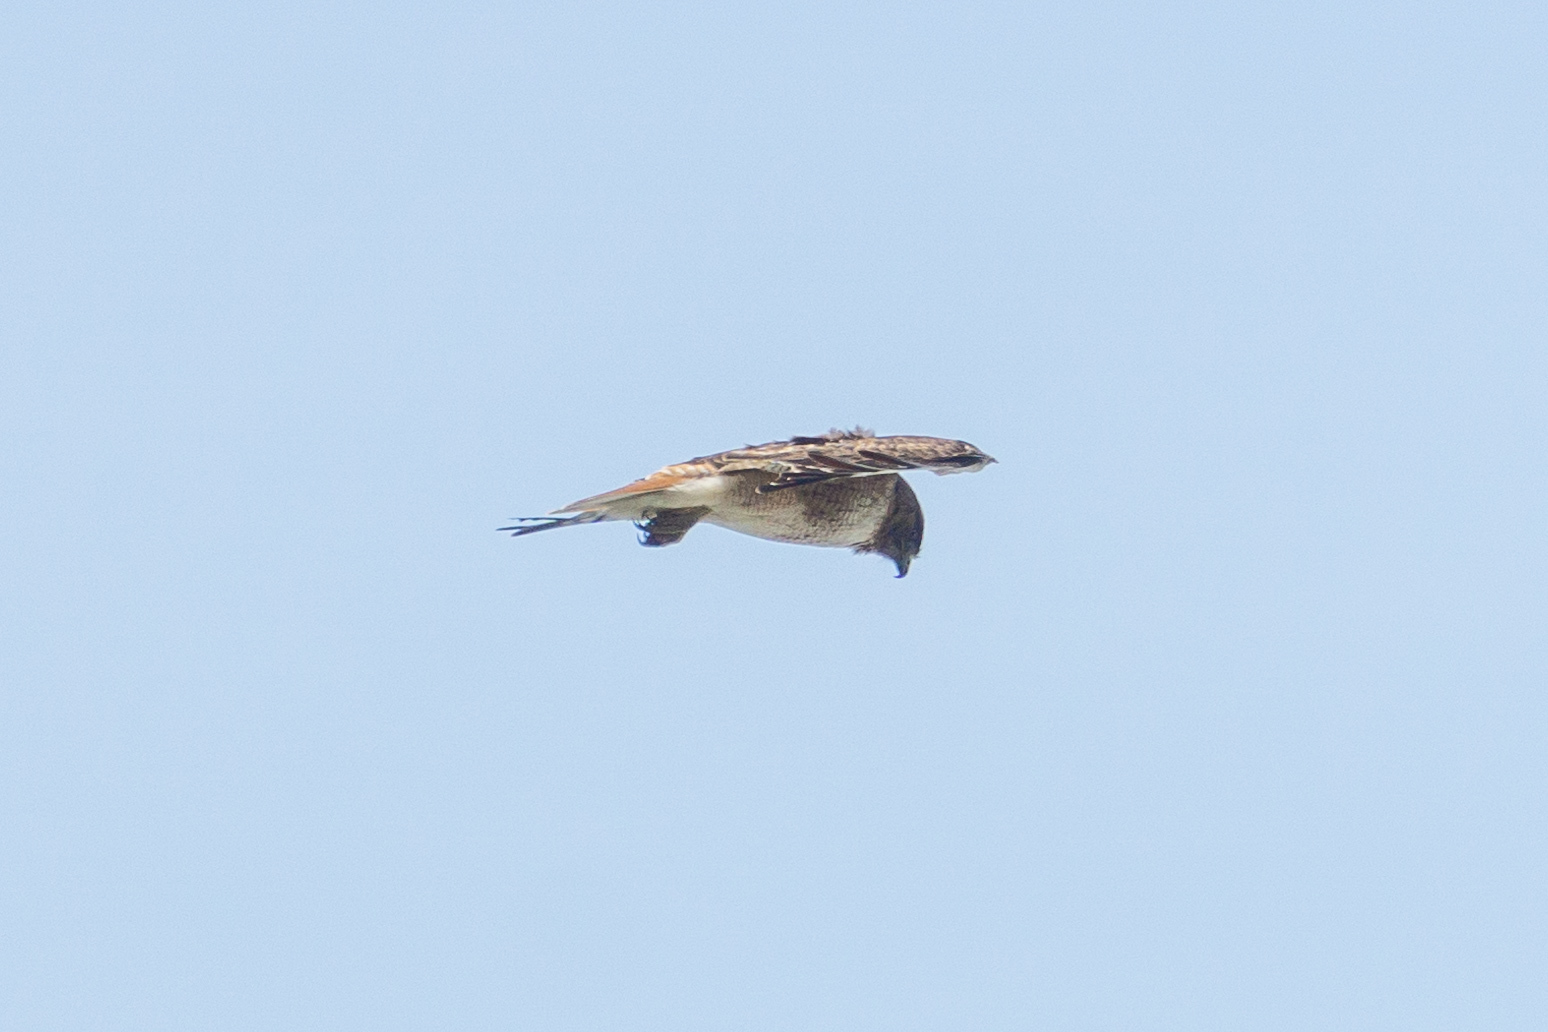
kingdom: Animalia
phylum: Chordata
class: Aves
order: Accipitriformes
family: Accipitridae
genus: Buteo
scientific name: Buteo jamaicensis
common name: Red-tailed hawk
